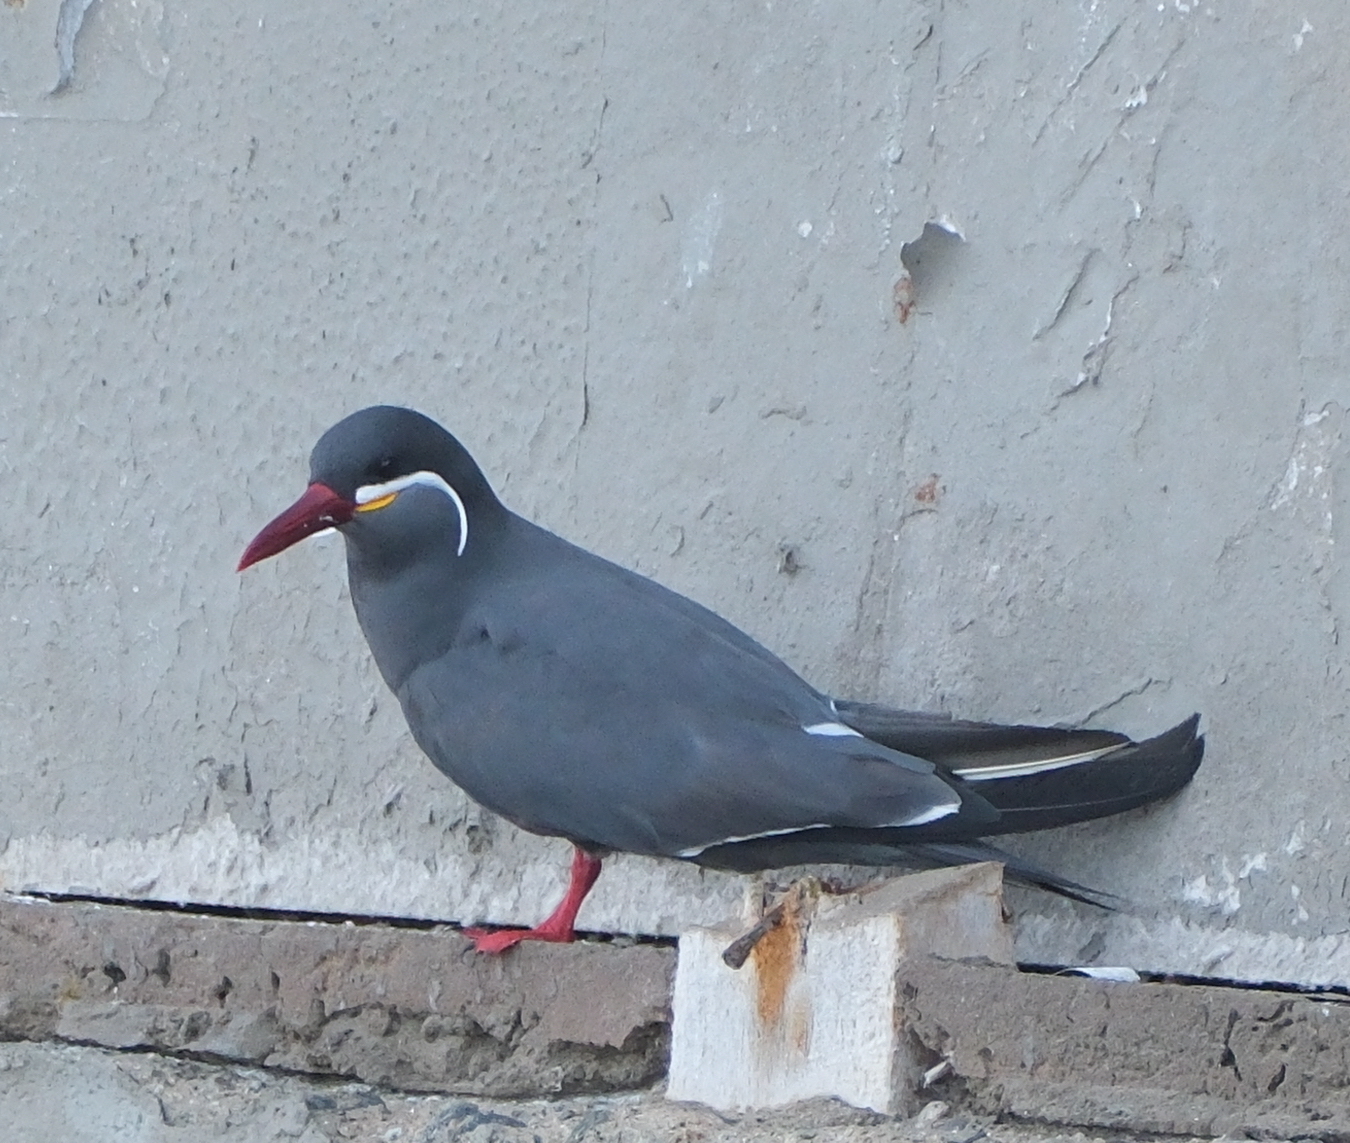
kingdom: Animalia
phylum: Chordata
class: Aves
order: Charadriiformes
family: Laridae
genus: Larosterna
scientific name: Larosterna inca
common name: Inca tern
